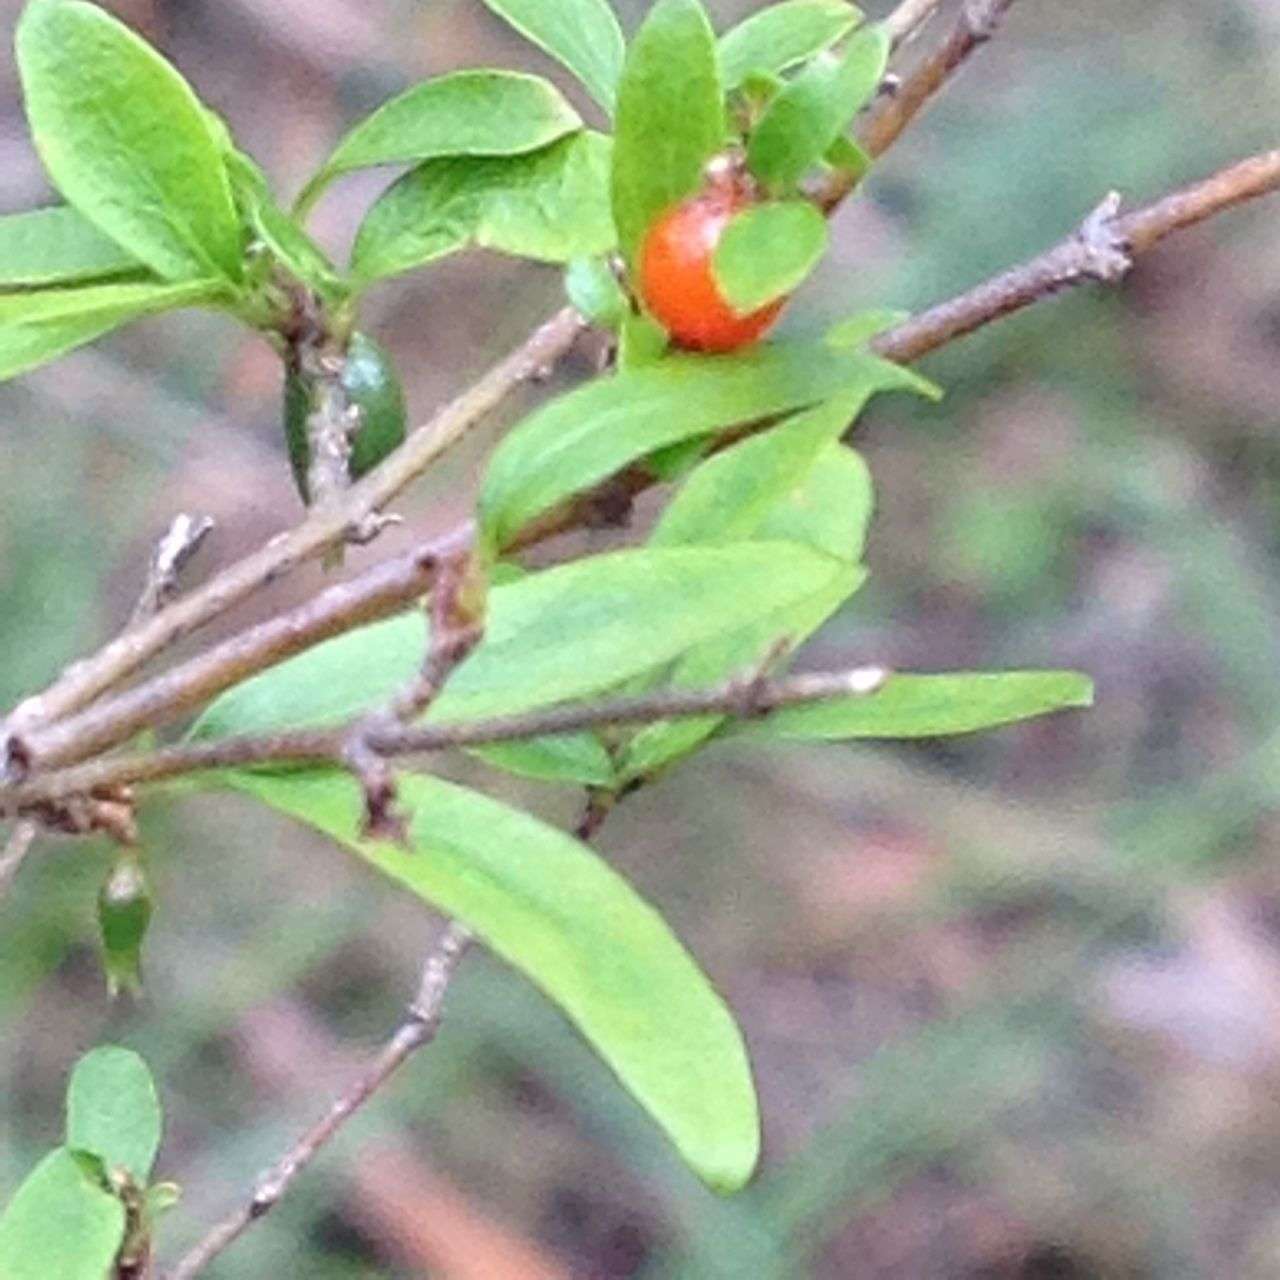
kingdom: Plantae
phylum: Tracheophyta
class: Magnoliopsida
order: Gentianales
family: Rubiaceae
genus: Coprosma
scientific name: Coprosma quadrifida
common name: Prickly currantbush
